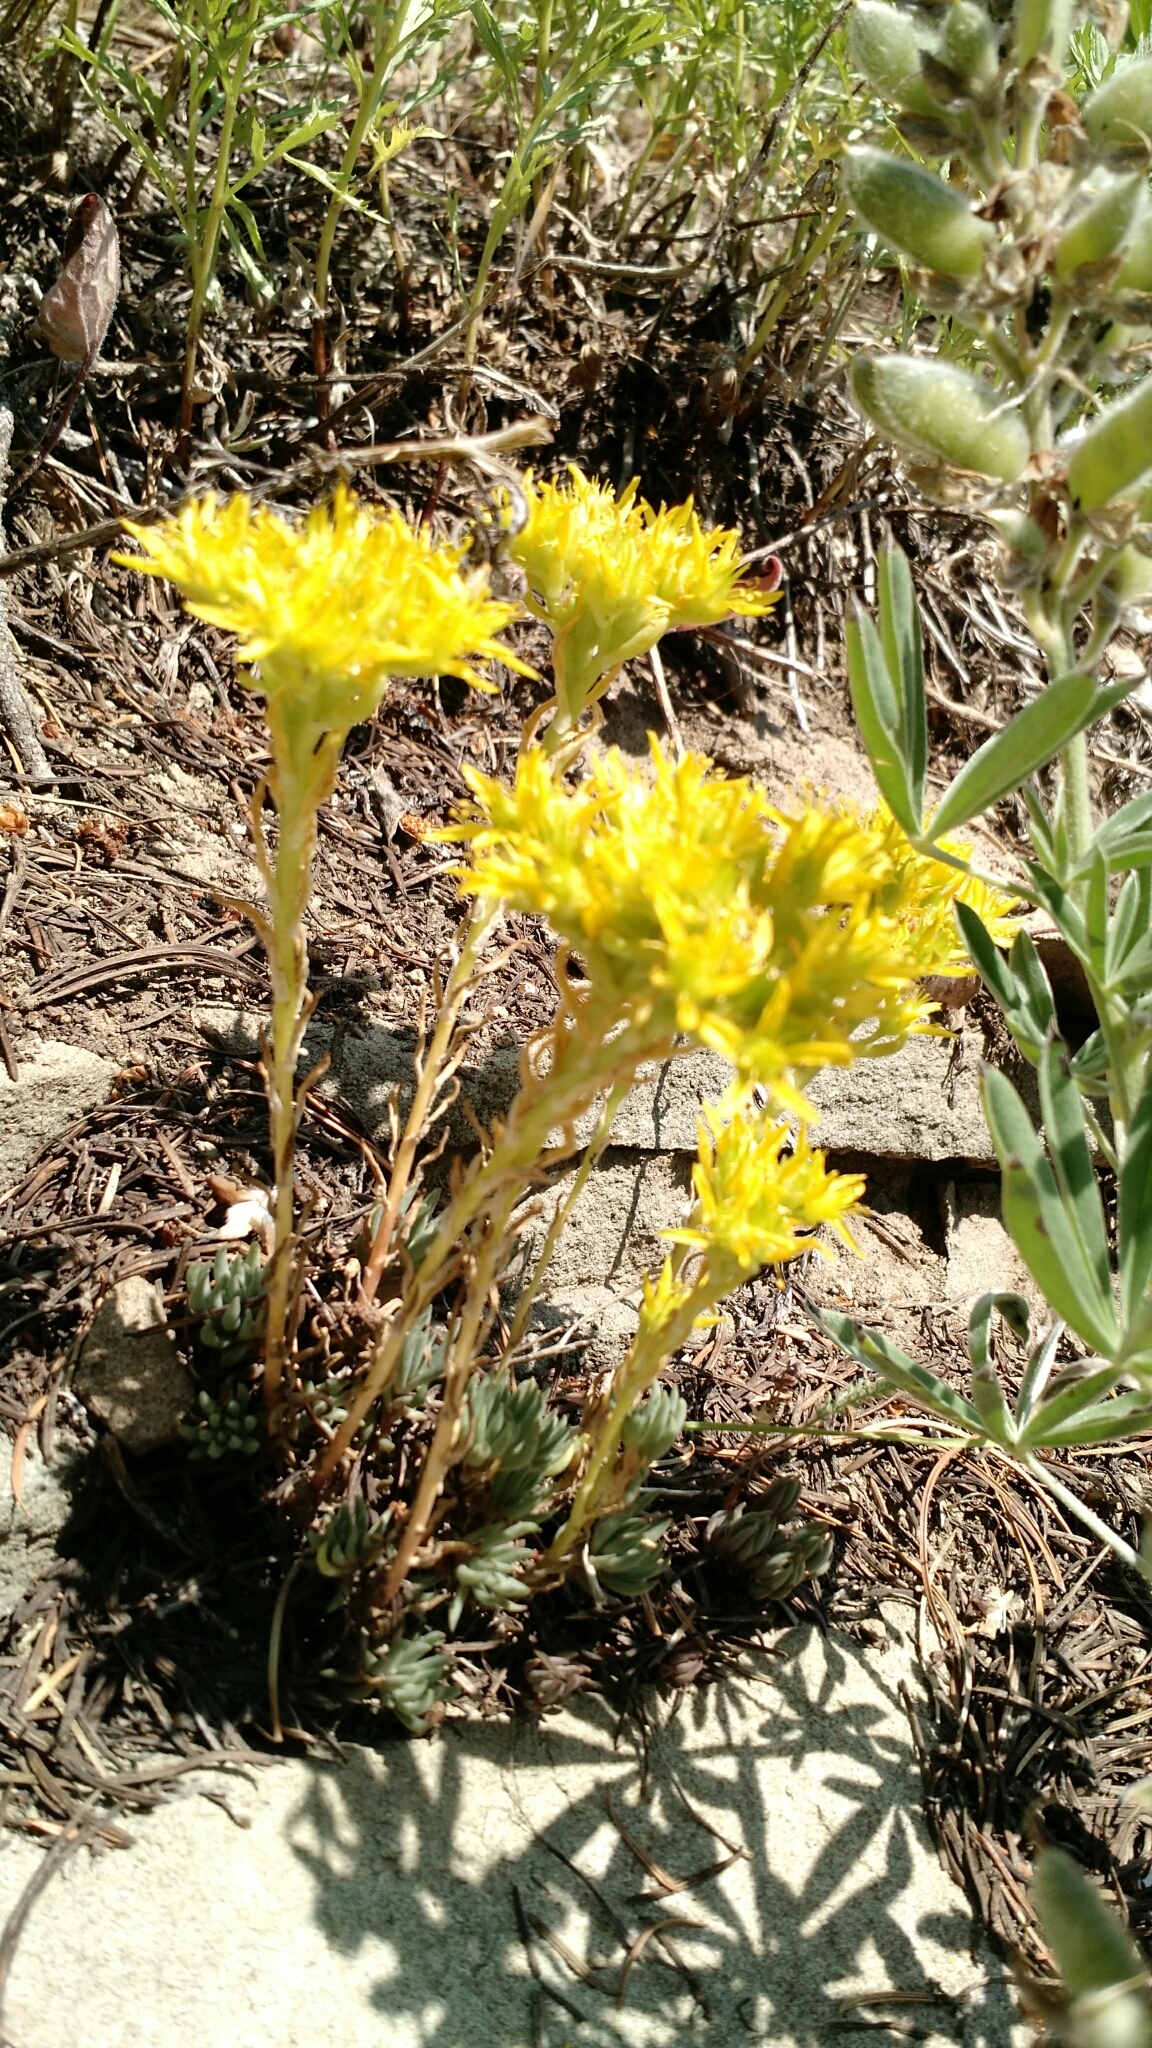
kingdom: Plantae
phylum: Tracheophyta
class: Magnoliopsida
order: Saxifragales
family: Crassulaceae
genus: Sedum
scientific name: Sedum lanceolatum
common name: Common stonecrop
